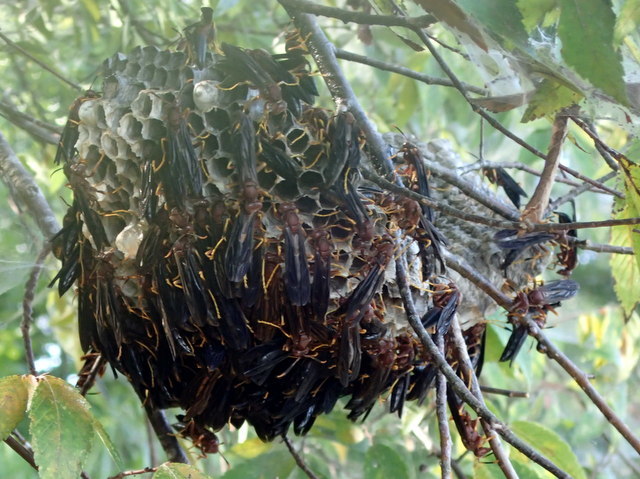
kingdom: Animalia
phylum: Arthropoda
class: Insecta
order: Hymenoptera
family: Eumenidae
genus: Polistes
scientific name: Polistes annularis
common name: Ringed paper wasp
